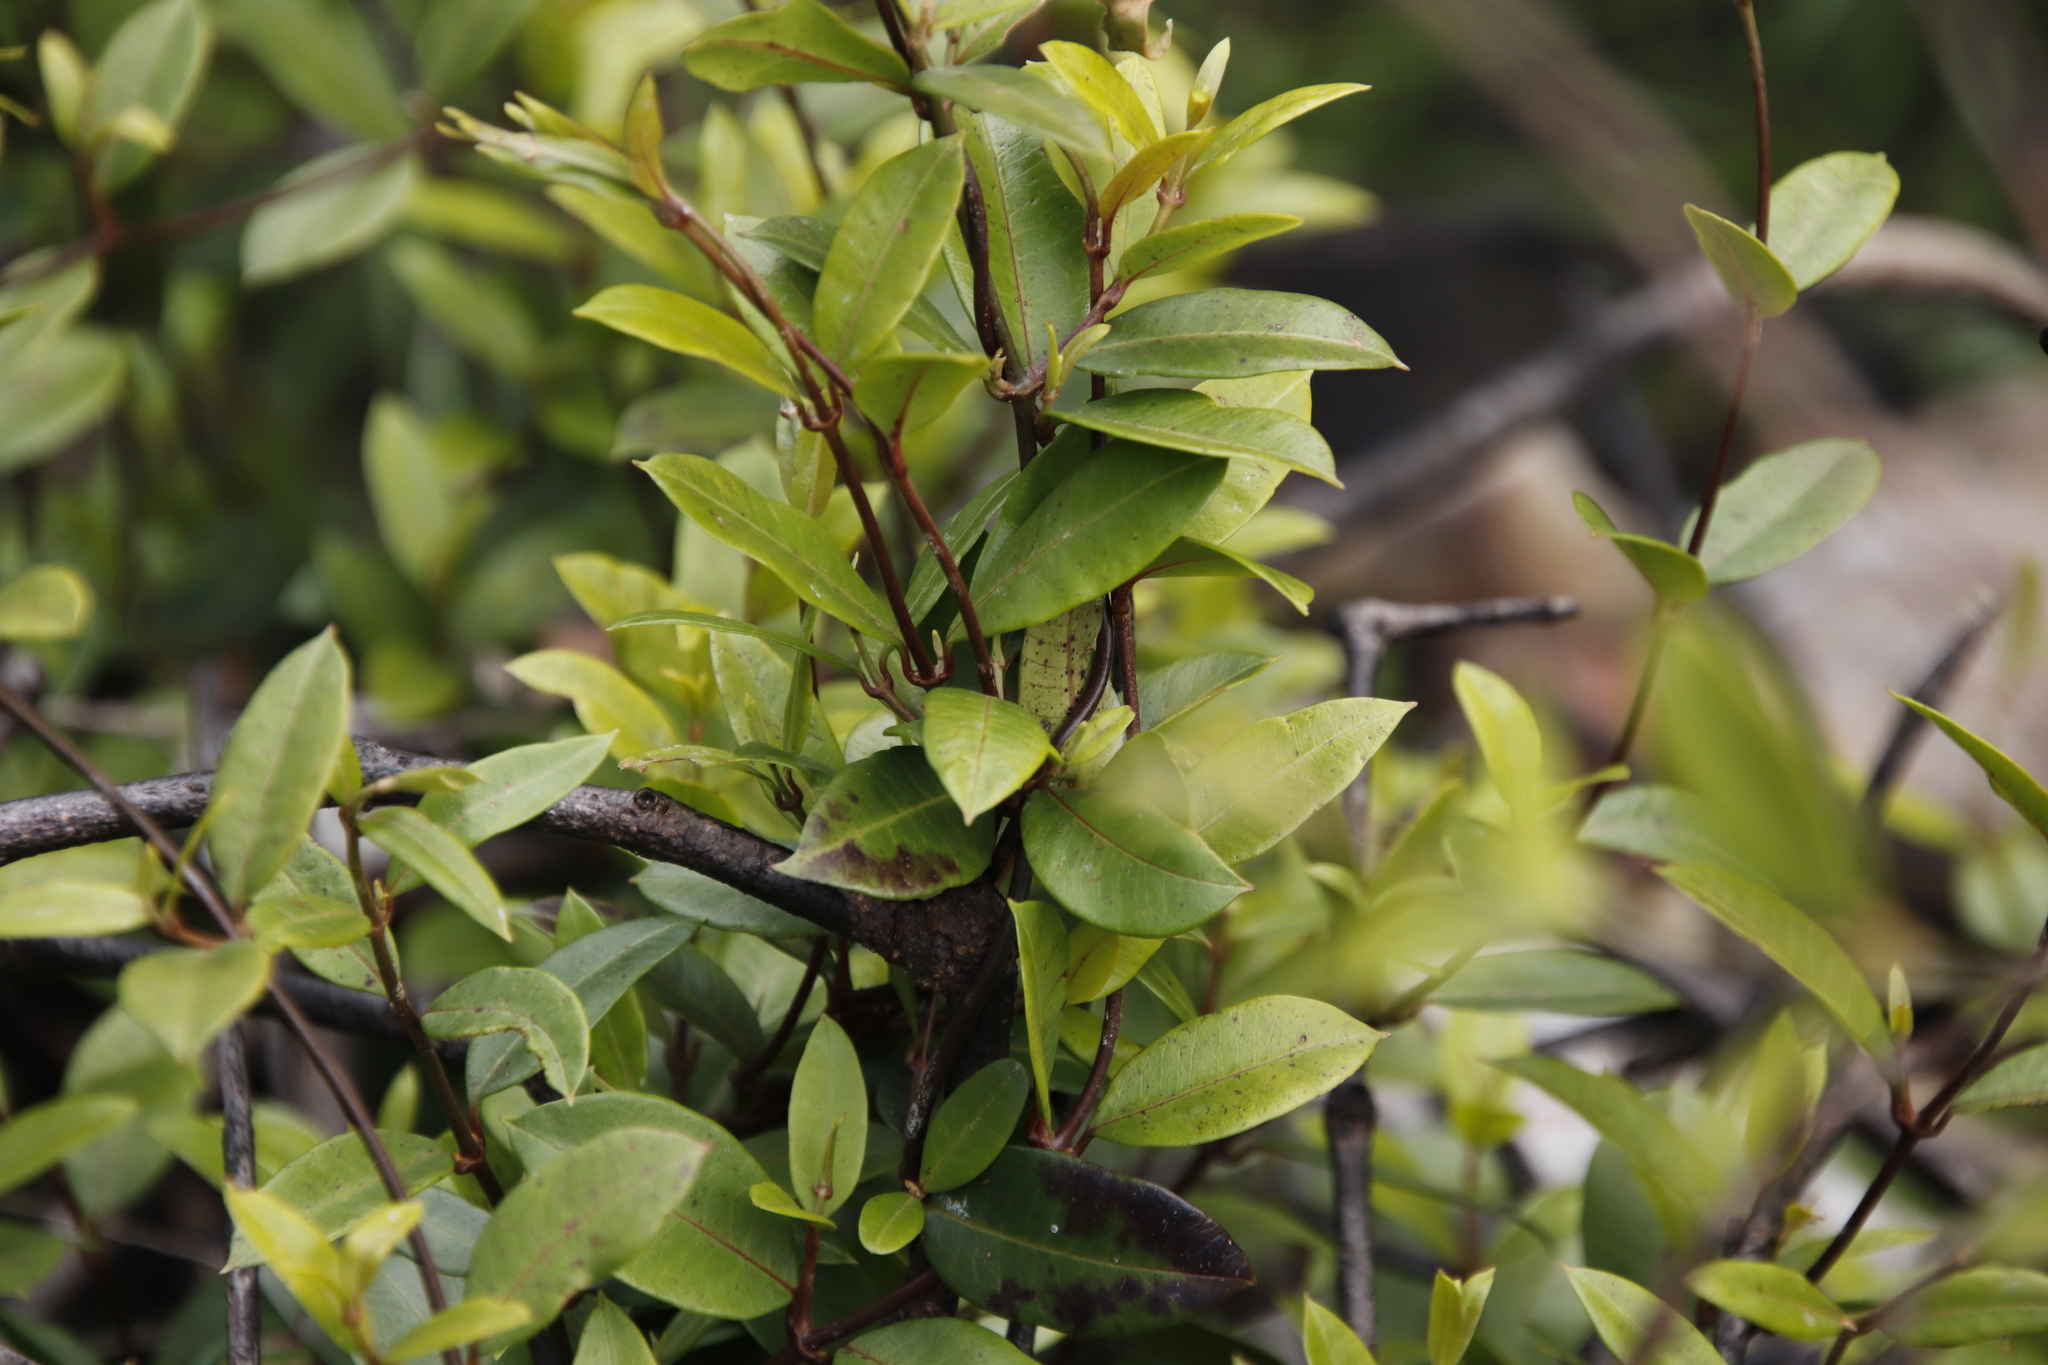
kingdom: Plantae
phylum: Tracheophyta
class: Magnoliopsida
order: Gentianales
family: Apocynaceae
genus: Secamone
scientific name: Secamone alpini
